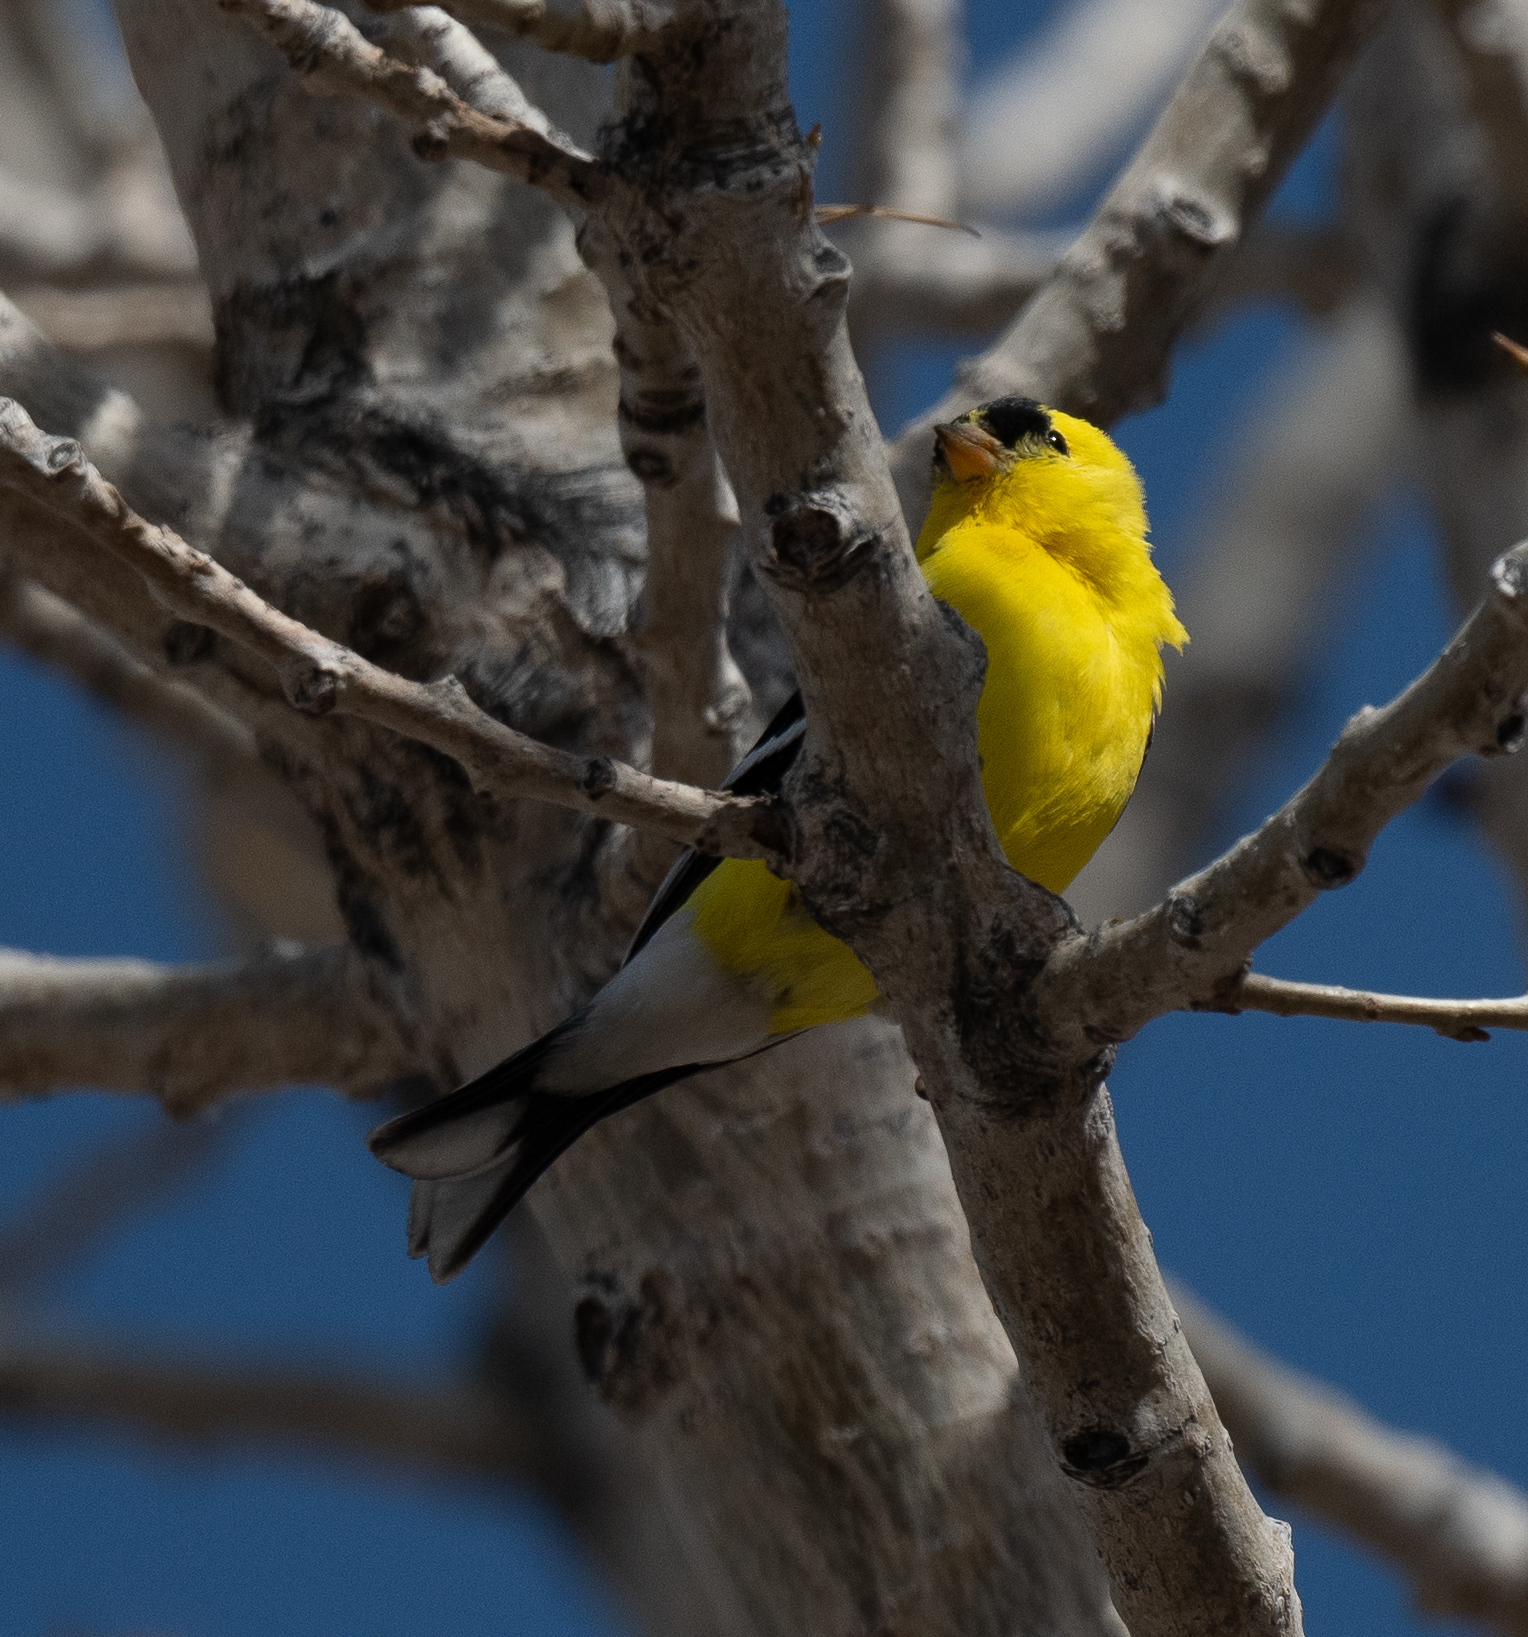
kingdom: Animalia
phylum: Chordata
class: Aves
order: Passeriformes
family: Fringillidae
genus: Spinus
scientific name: Spinus tristis
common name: American goldfinch
